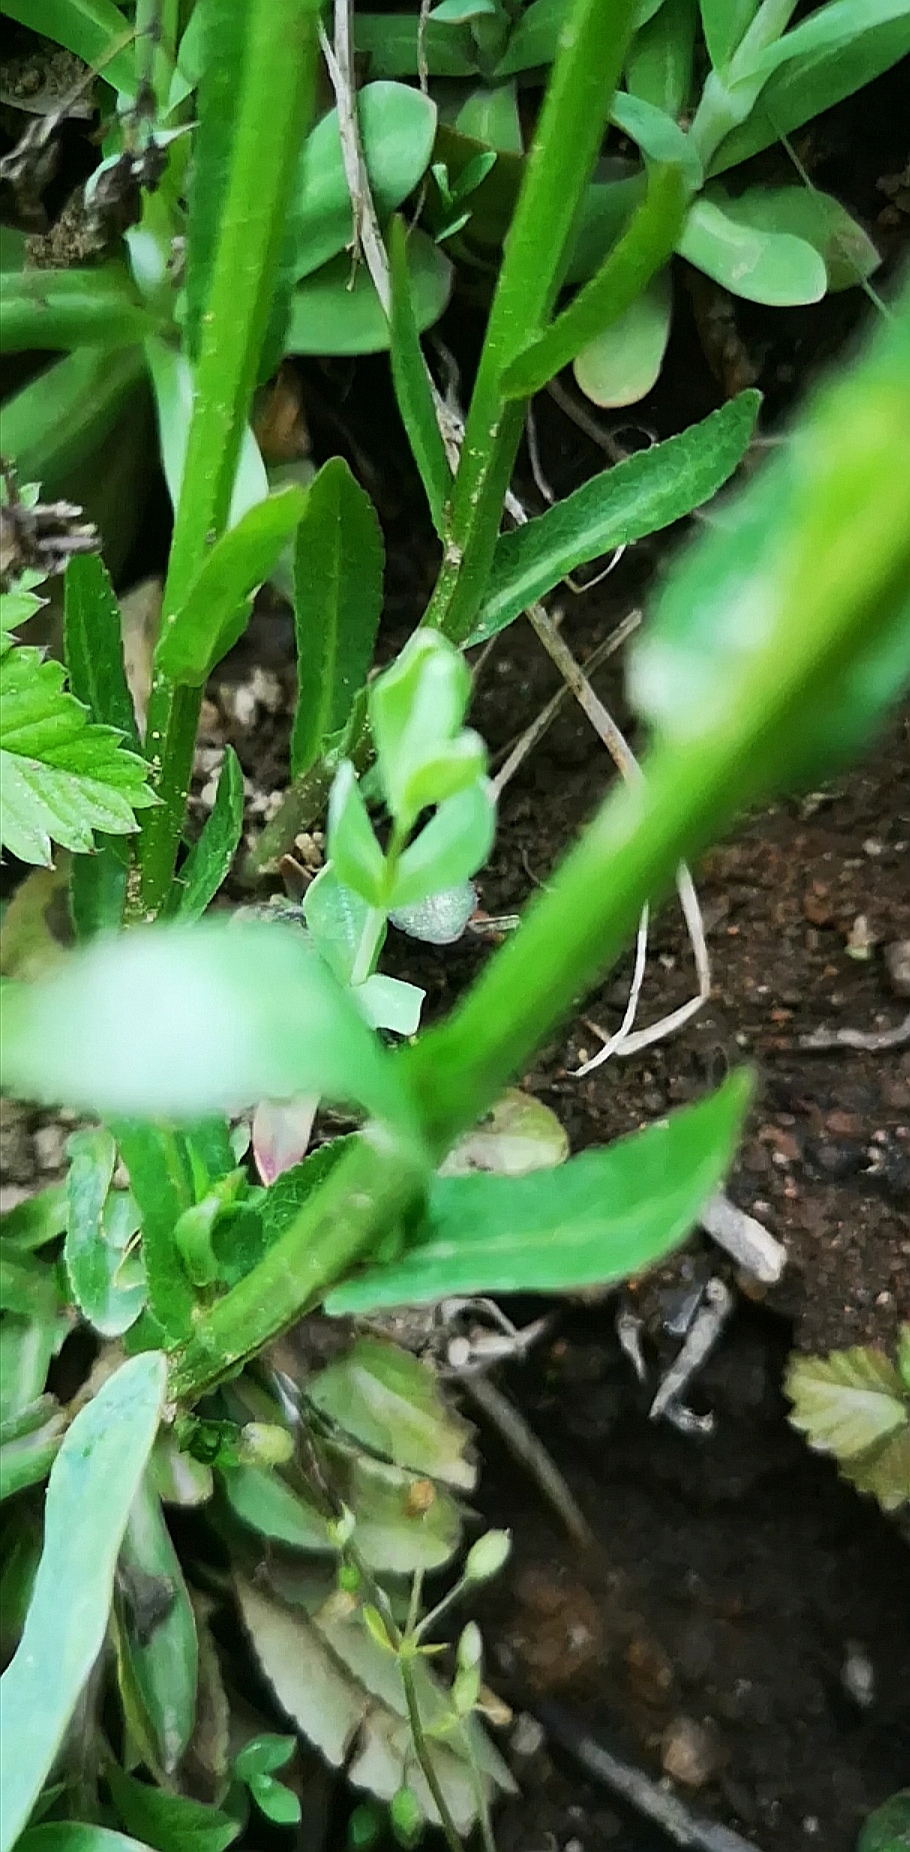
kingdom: Plantae
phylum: Tracheophyta
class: Magnoliopsida
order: Asterales
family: Campanulaceae
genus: Campanula
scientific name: Campanula patula
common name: Spreading bellflower
